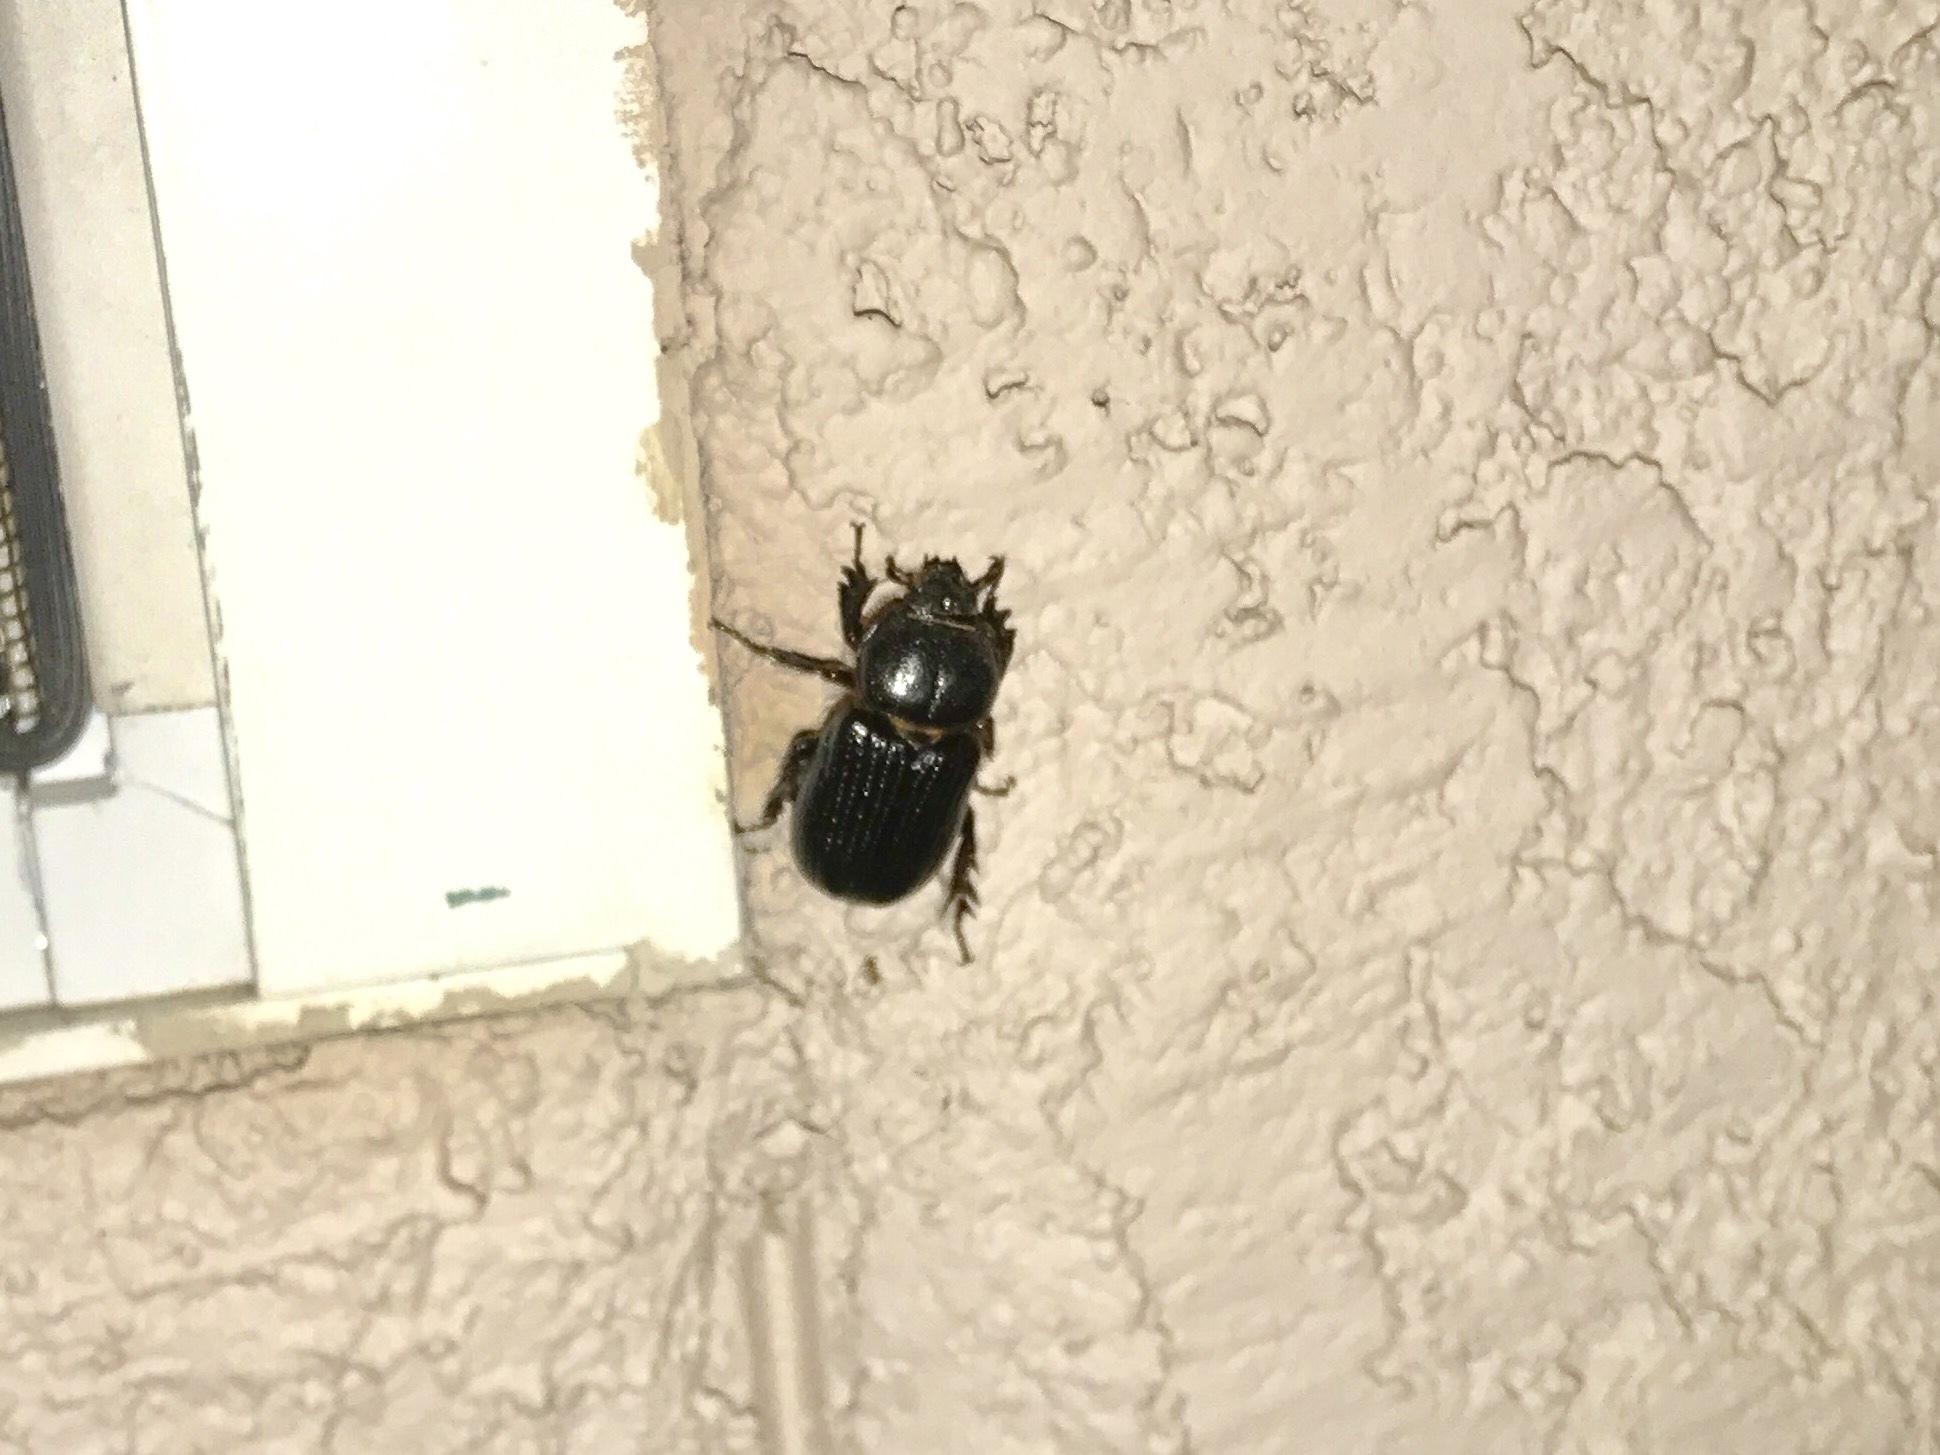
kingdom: Animalia
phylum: Arthropoda
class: Insecta
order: Coleoptera
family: Scarabaeidae
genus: Hemiphileurus
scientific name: Hemiphileurus illatus
